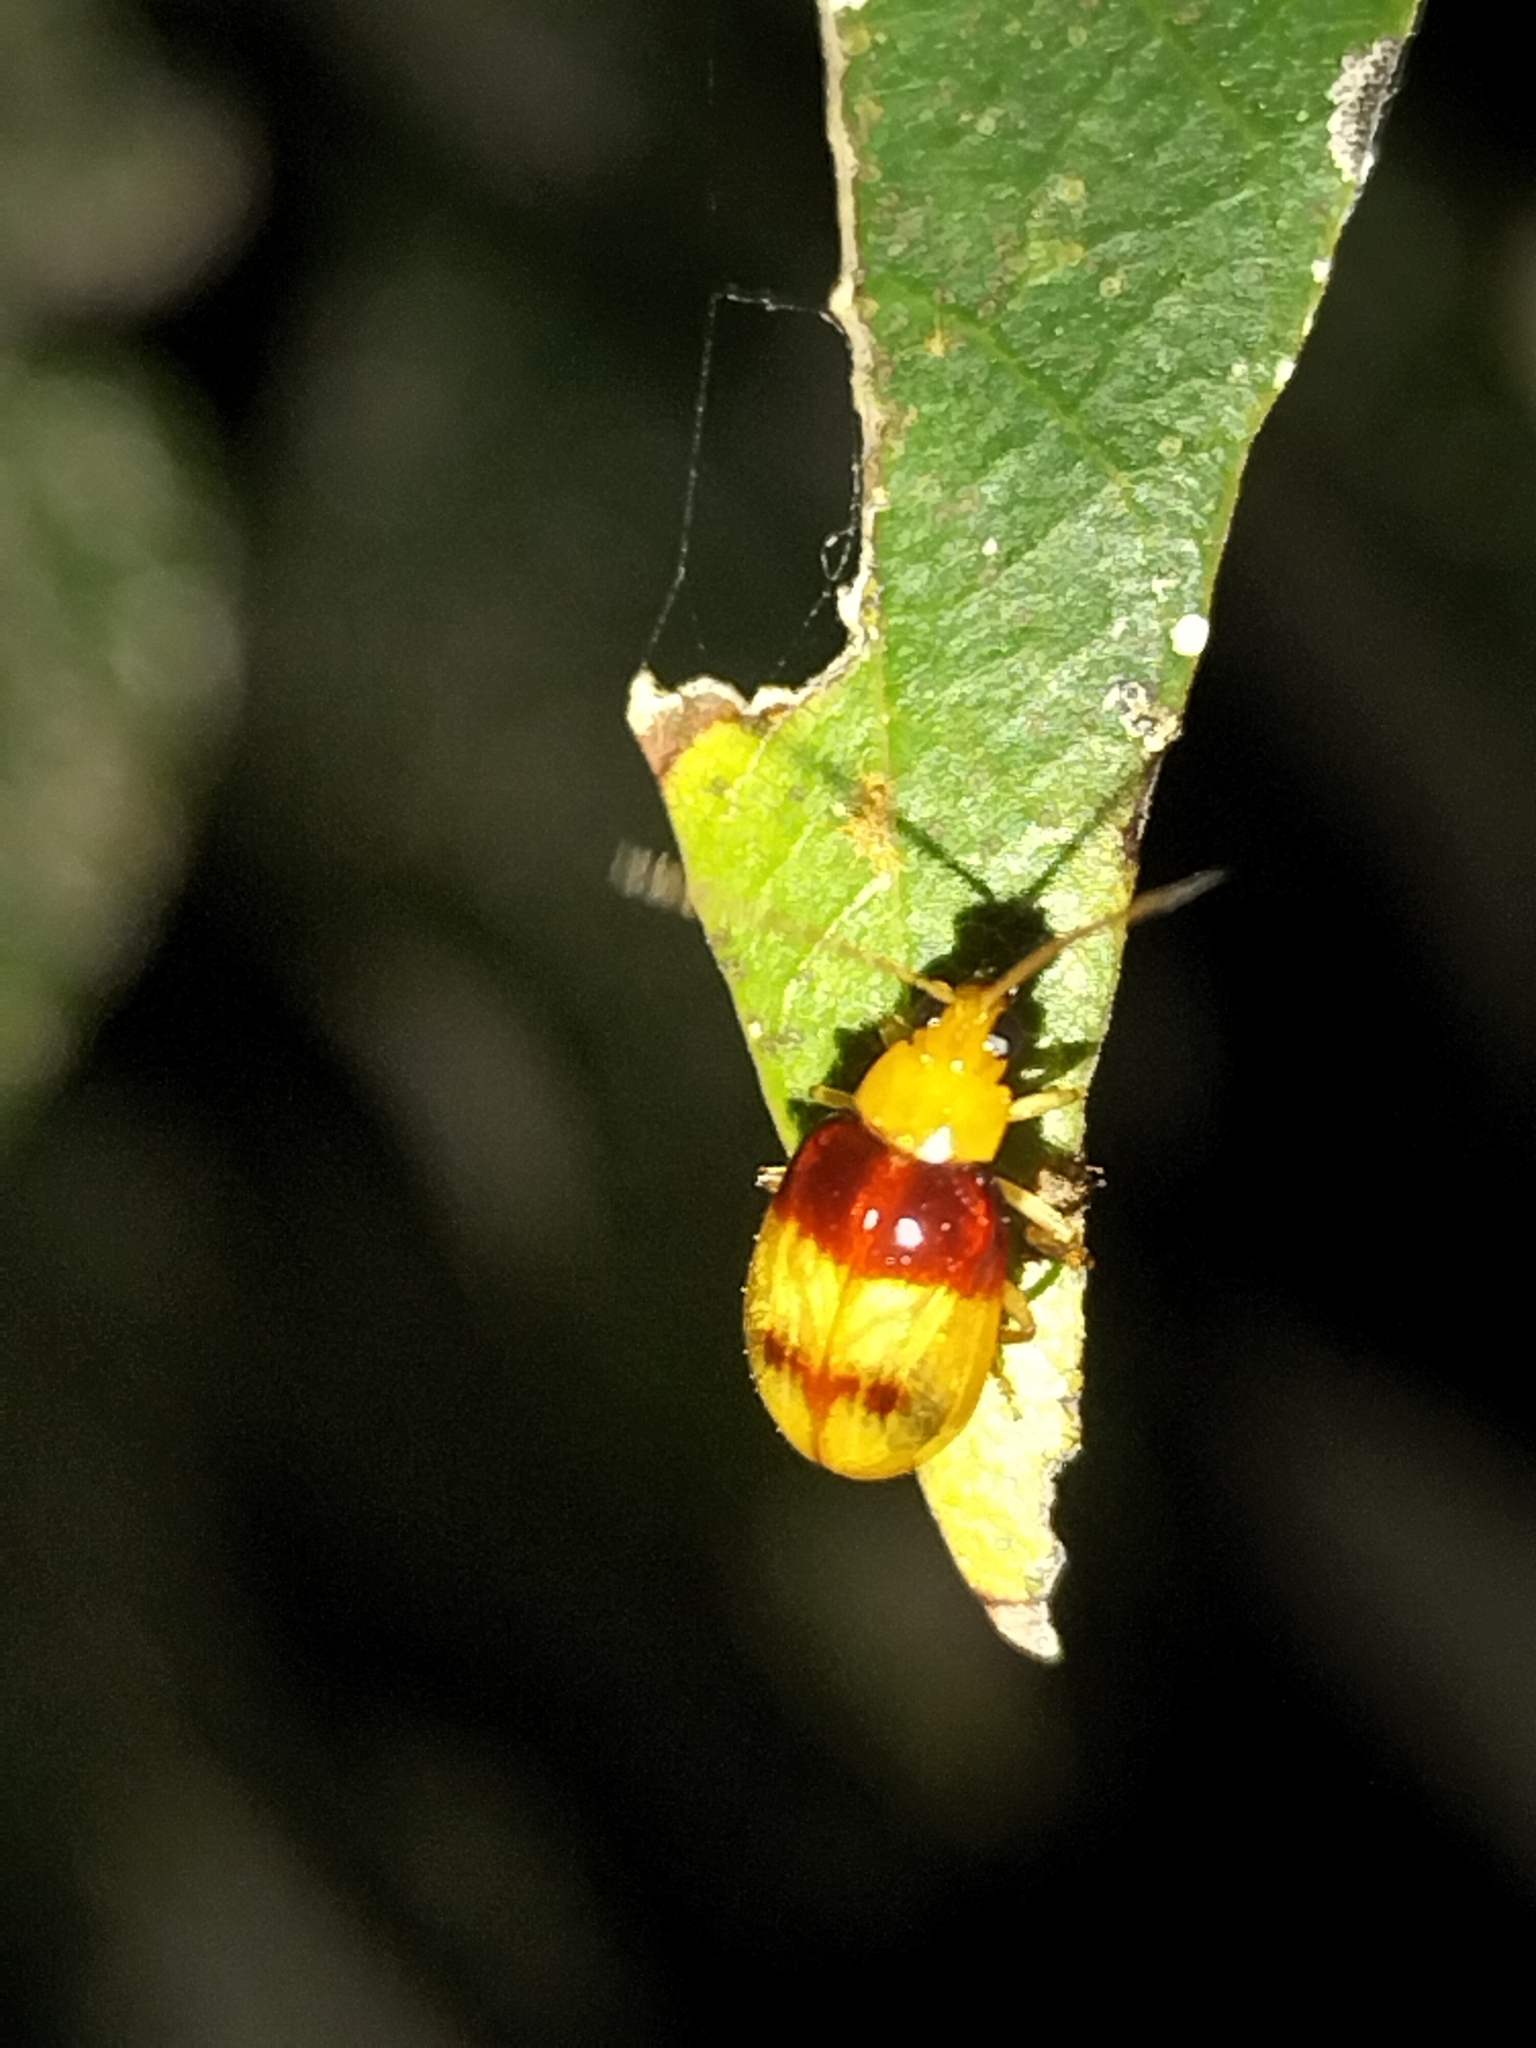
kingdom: Animalia
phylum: Arthropoda
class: Insecta
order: Coleoptera
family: Chrysomelidae
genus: Monolepta
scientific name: Monolepta
